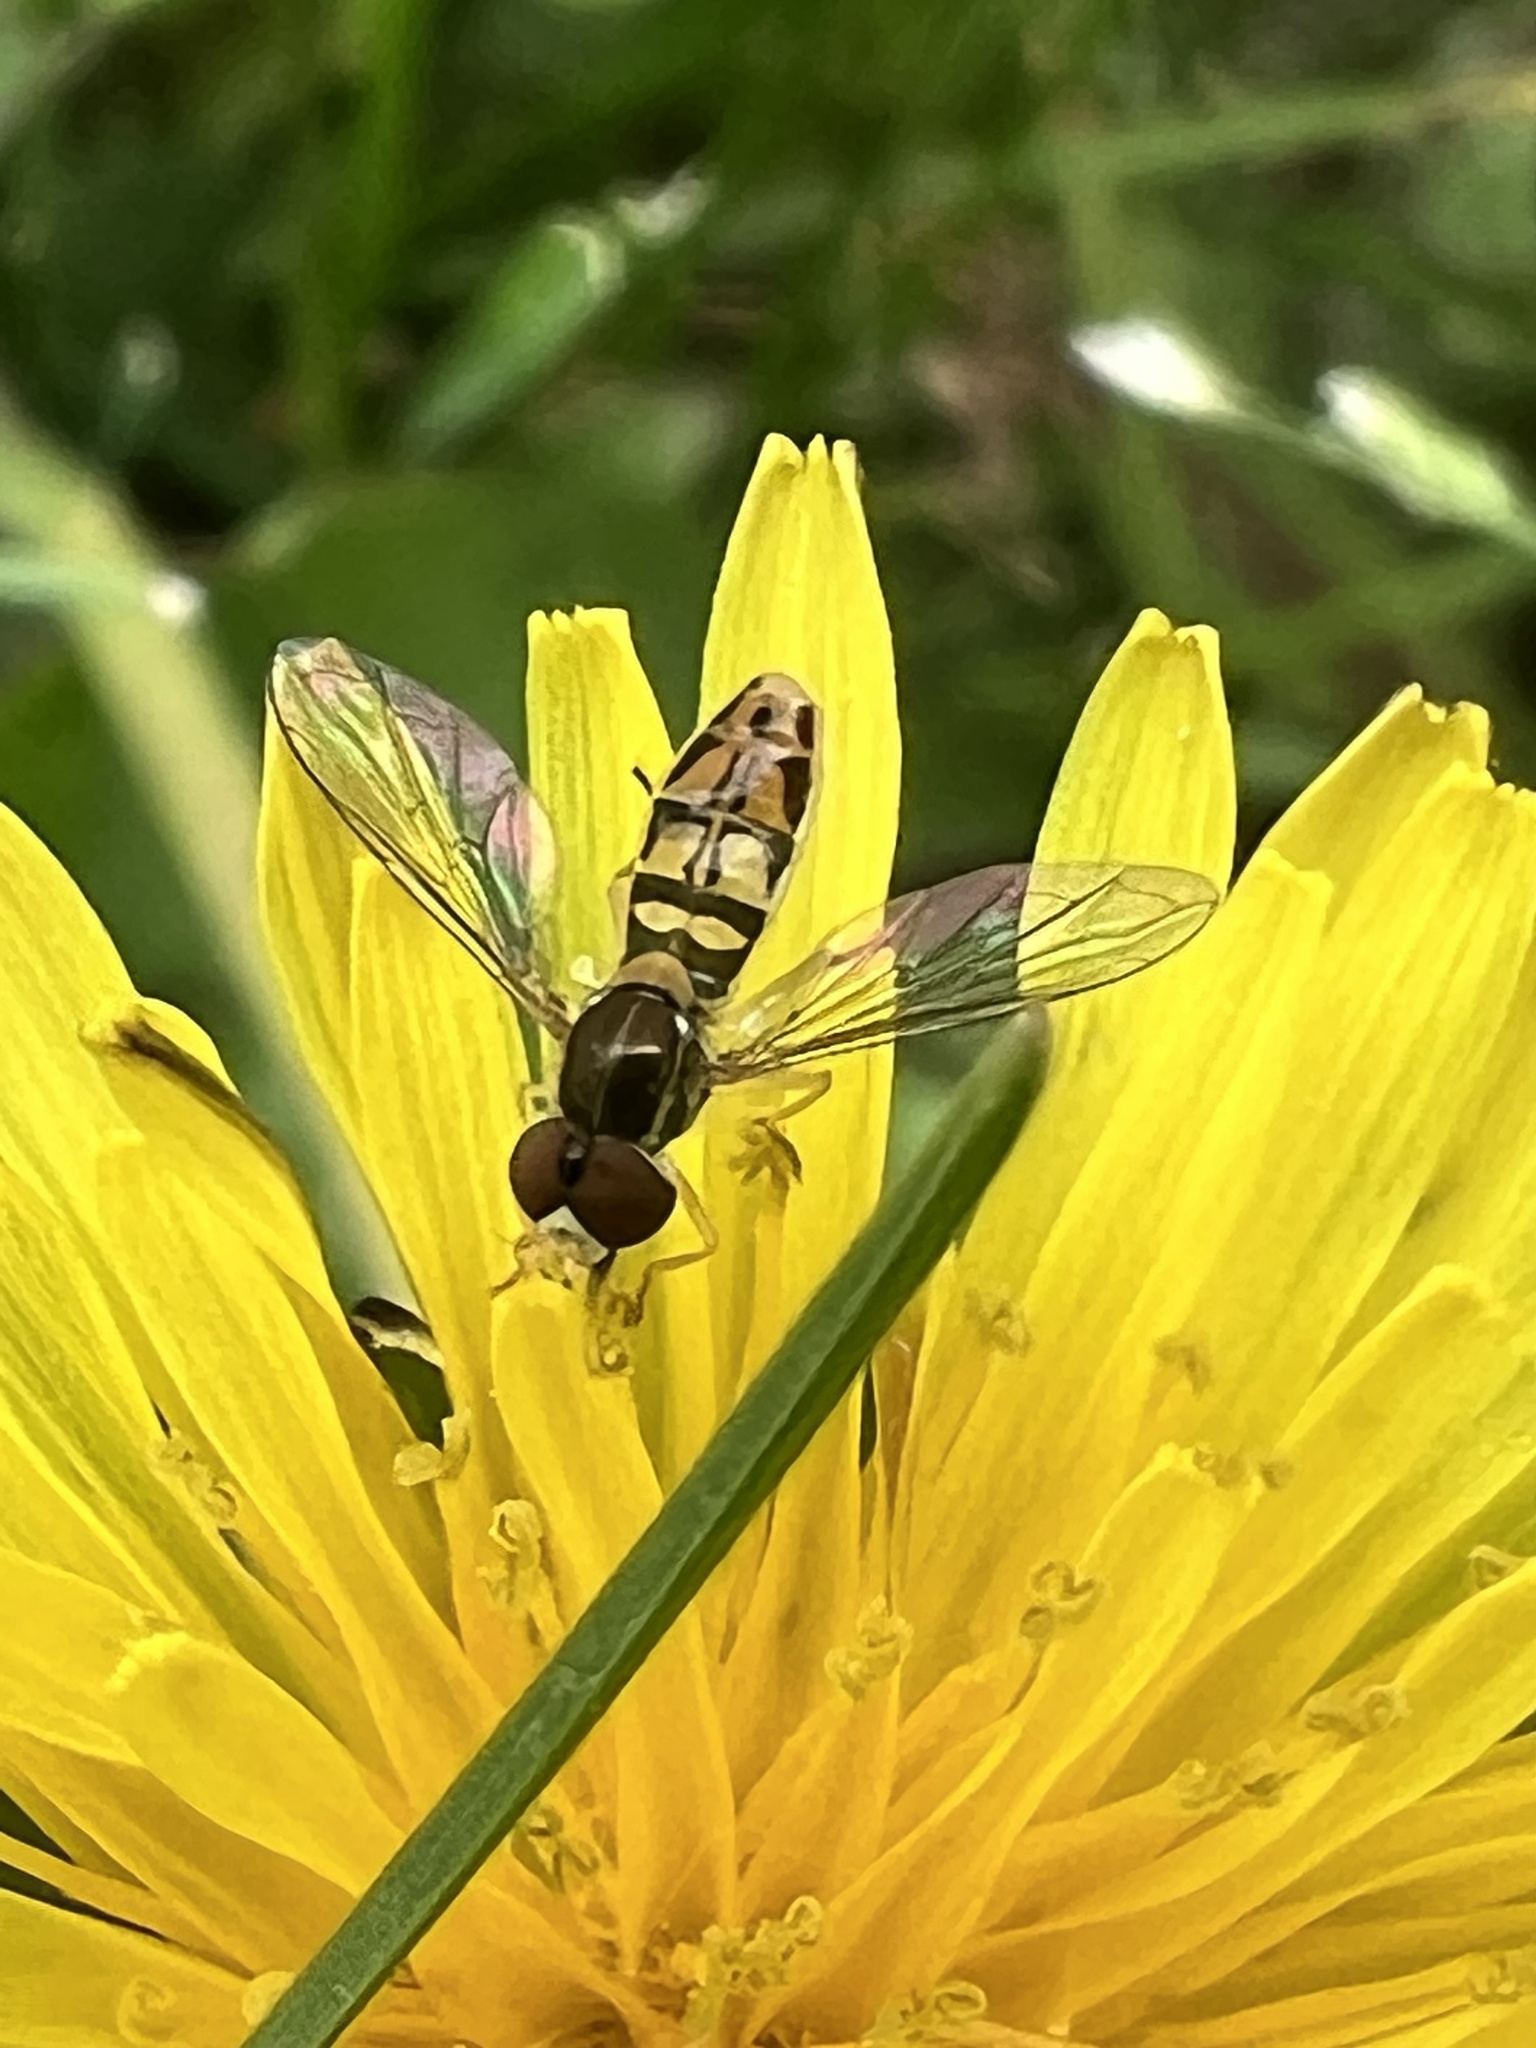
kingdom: Animalia
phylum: Arthropoda
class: Insecta
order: Diptera
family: Syrphidae
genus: Toxomerus
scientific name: Toxomerus marginatus
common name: Syrphid fly
